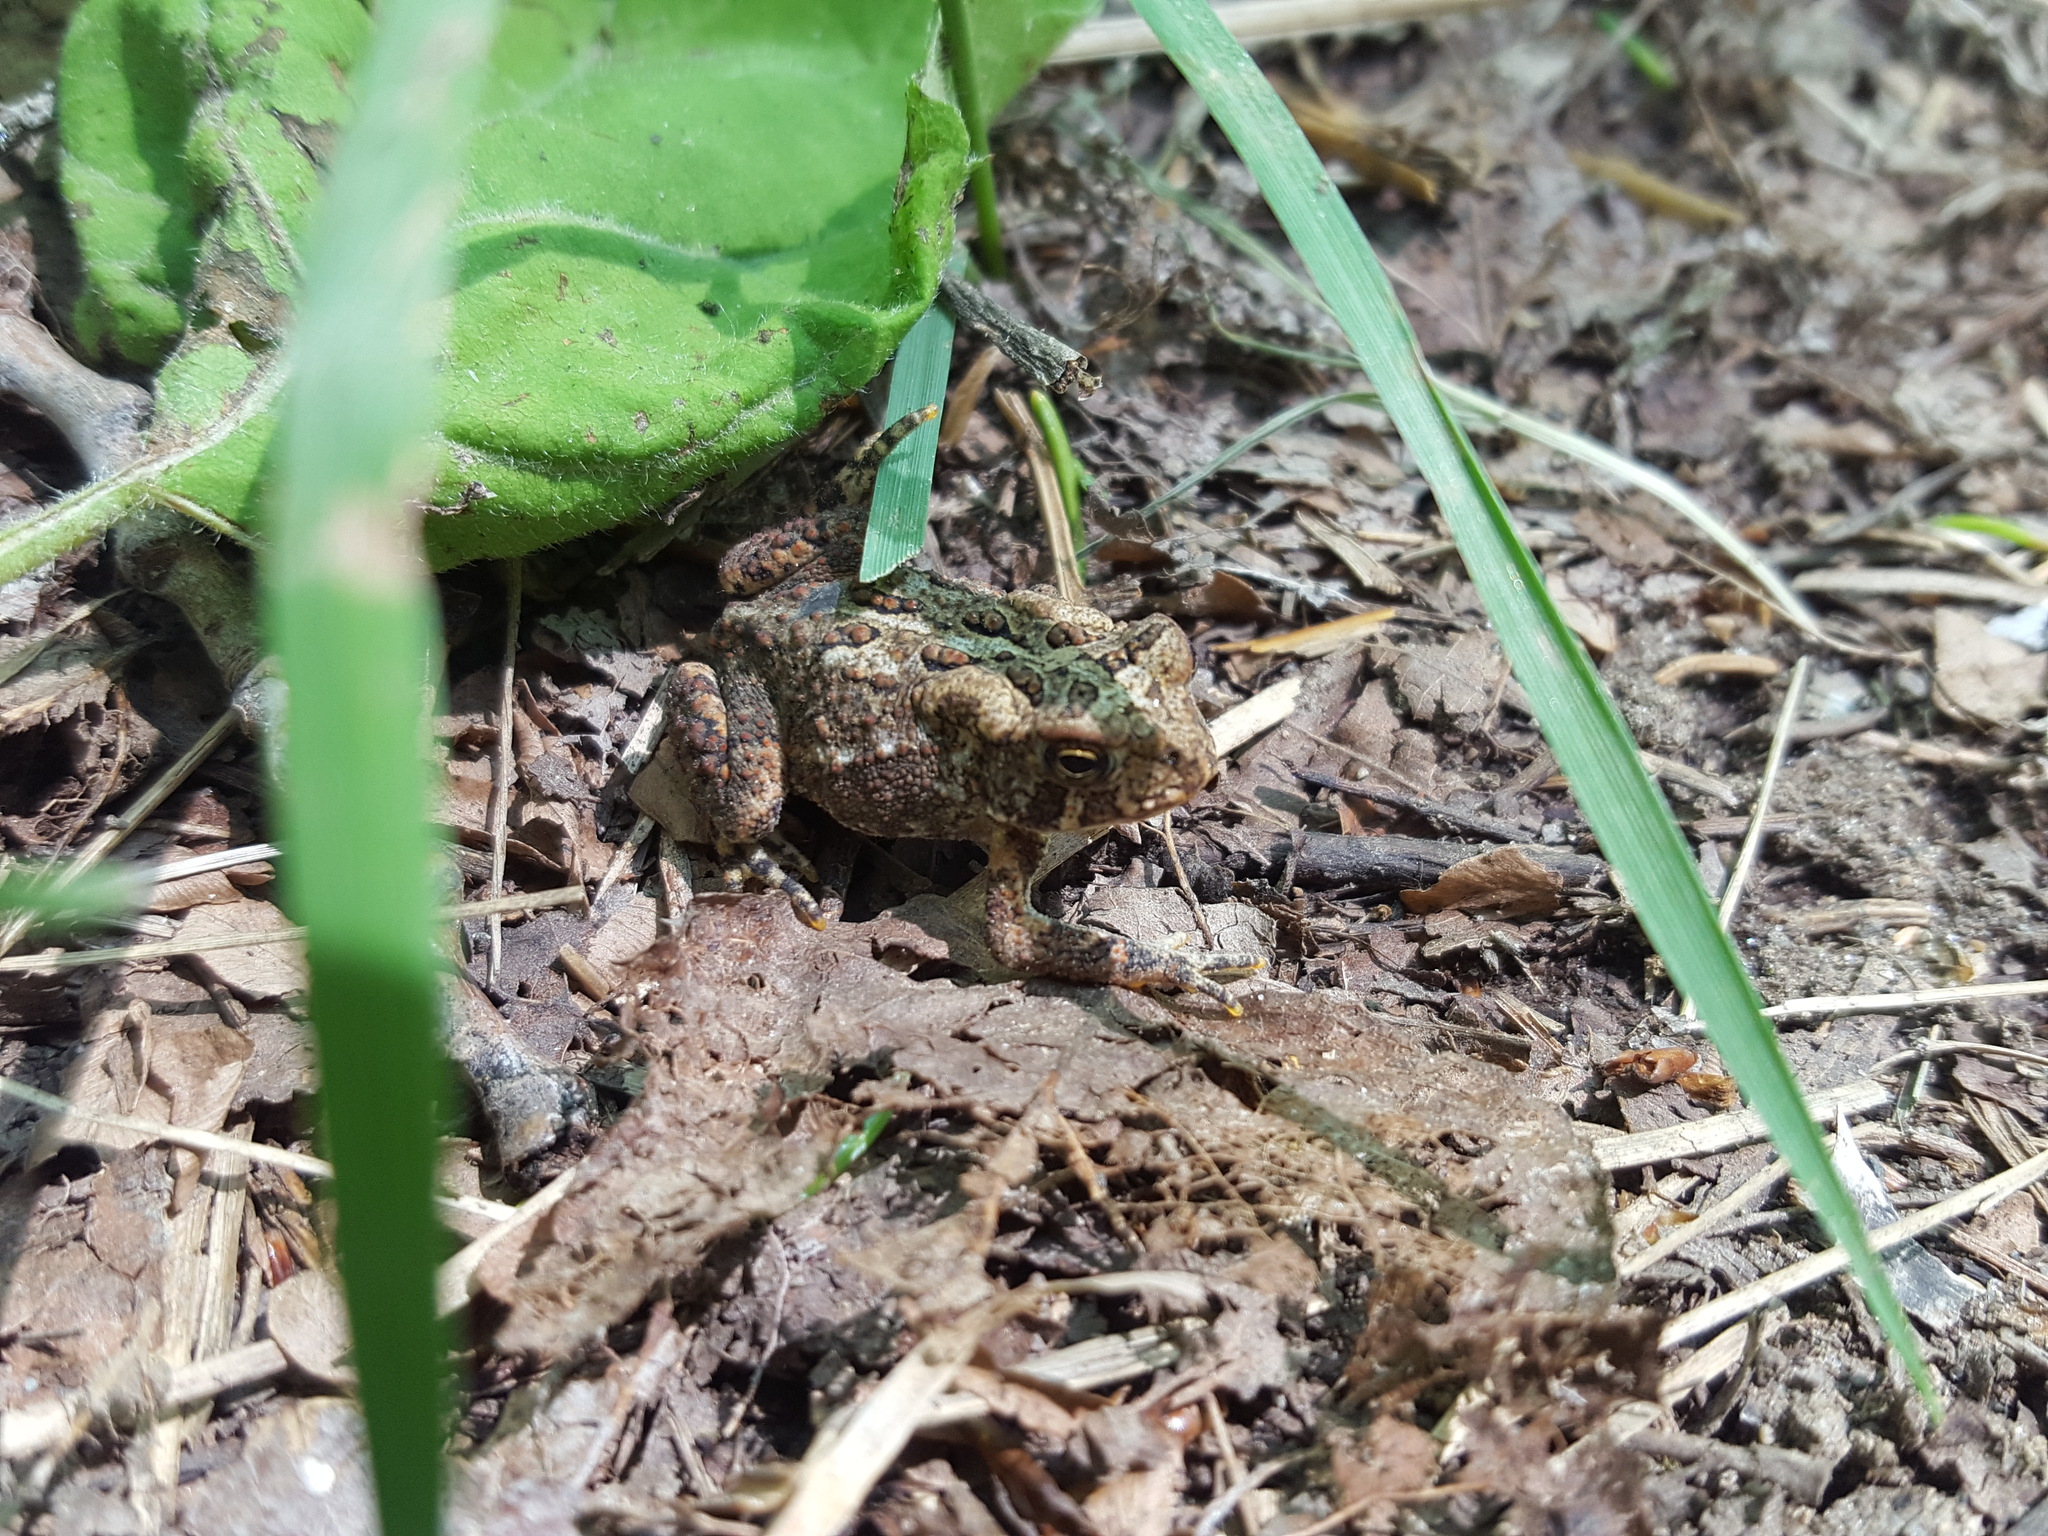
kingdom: Animalia
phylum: Chordata
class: Amphibia
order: Anura
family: Bufonidae
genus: Anaxyrus
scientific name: Anaxyrus americanus
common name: American toad
